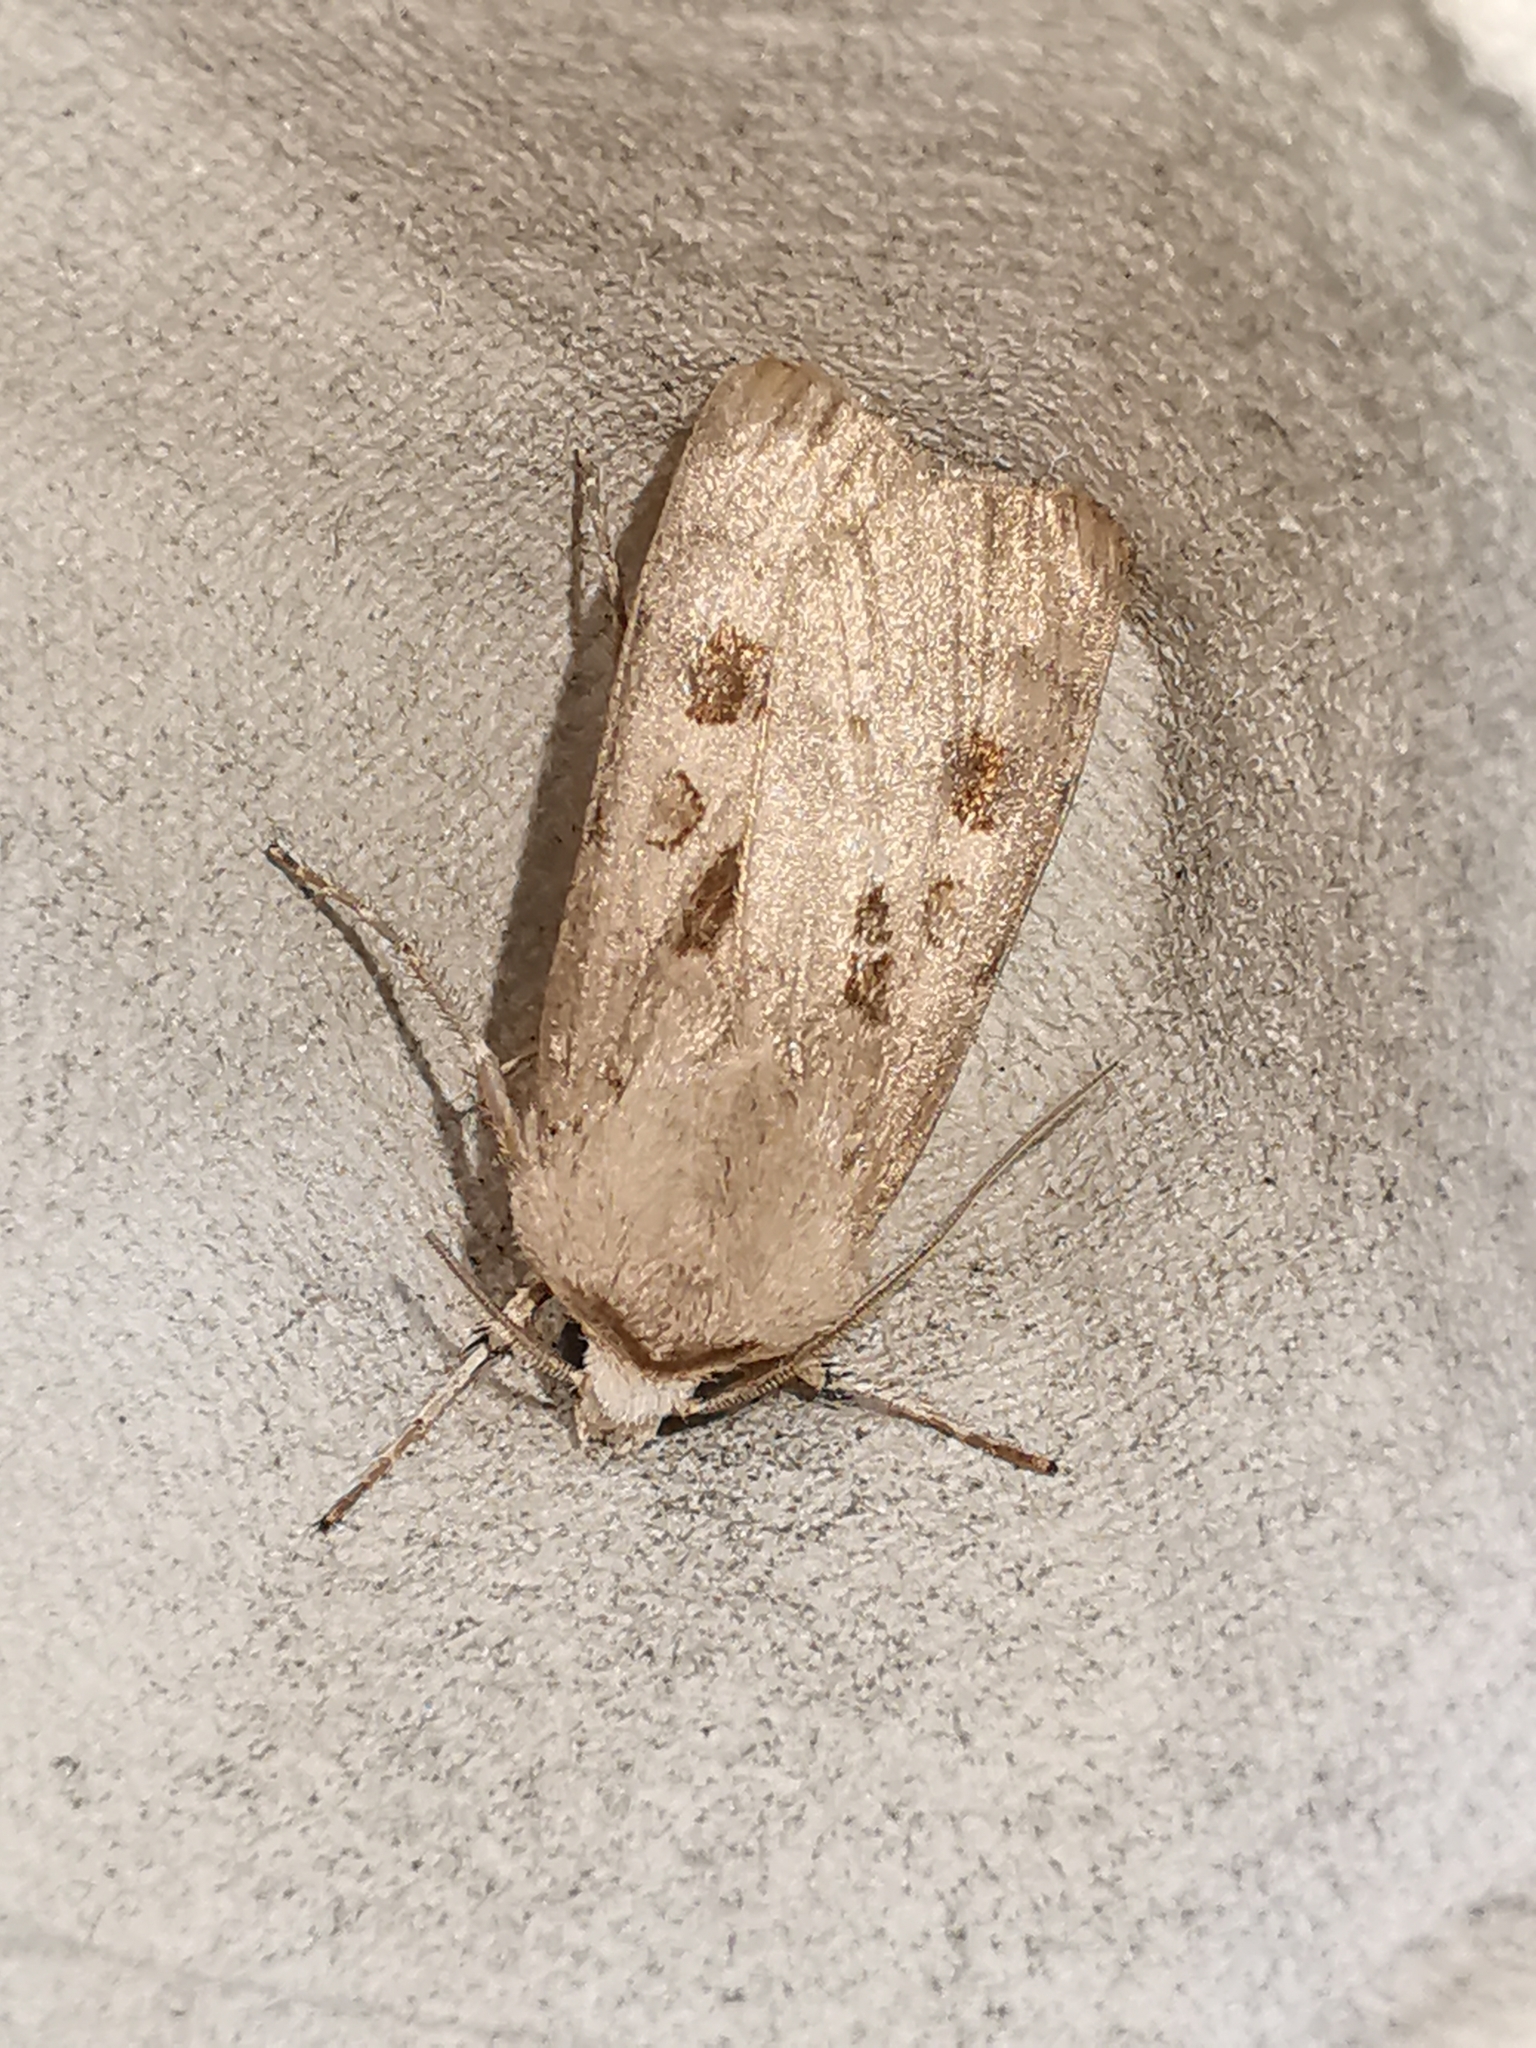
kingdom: Animalia
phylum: Arthropoda
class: Insecta
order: Lepidoptera
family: Noctuidae
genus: Agrotis
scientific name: Agrotis exclamationis
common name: Heart and dart
